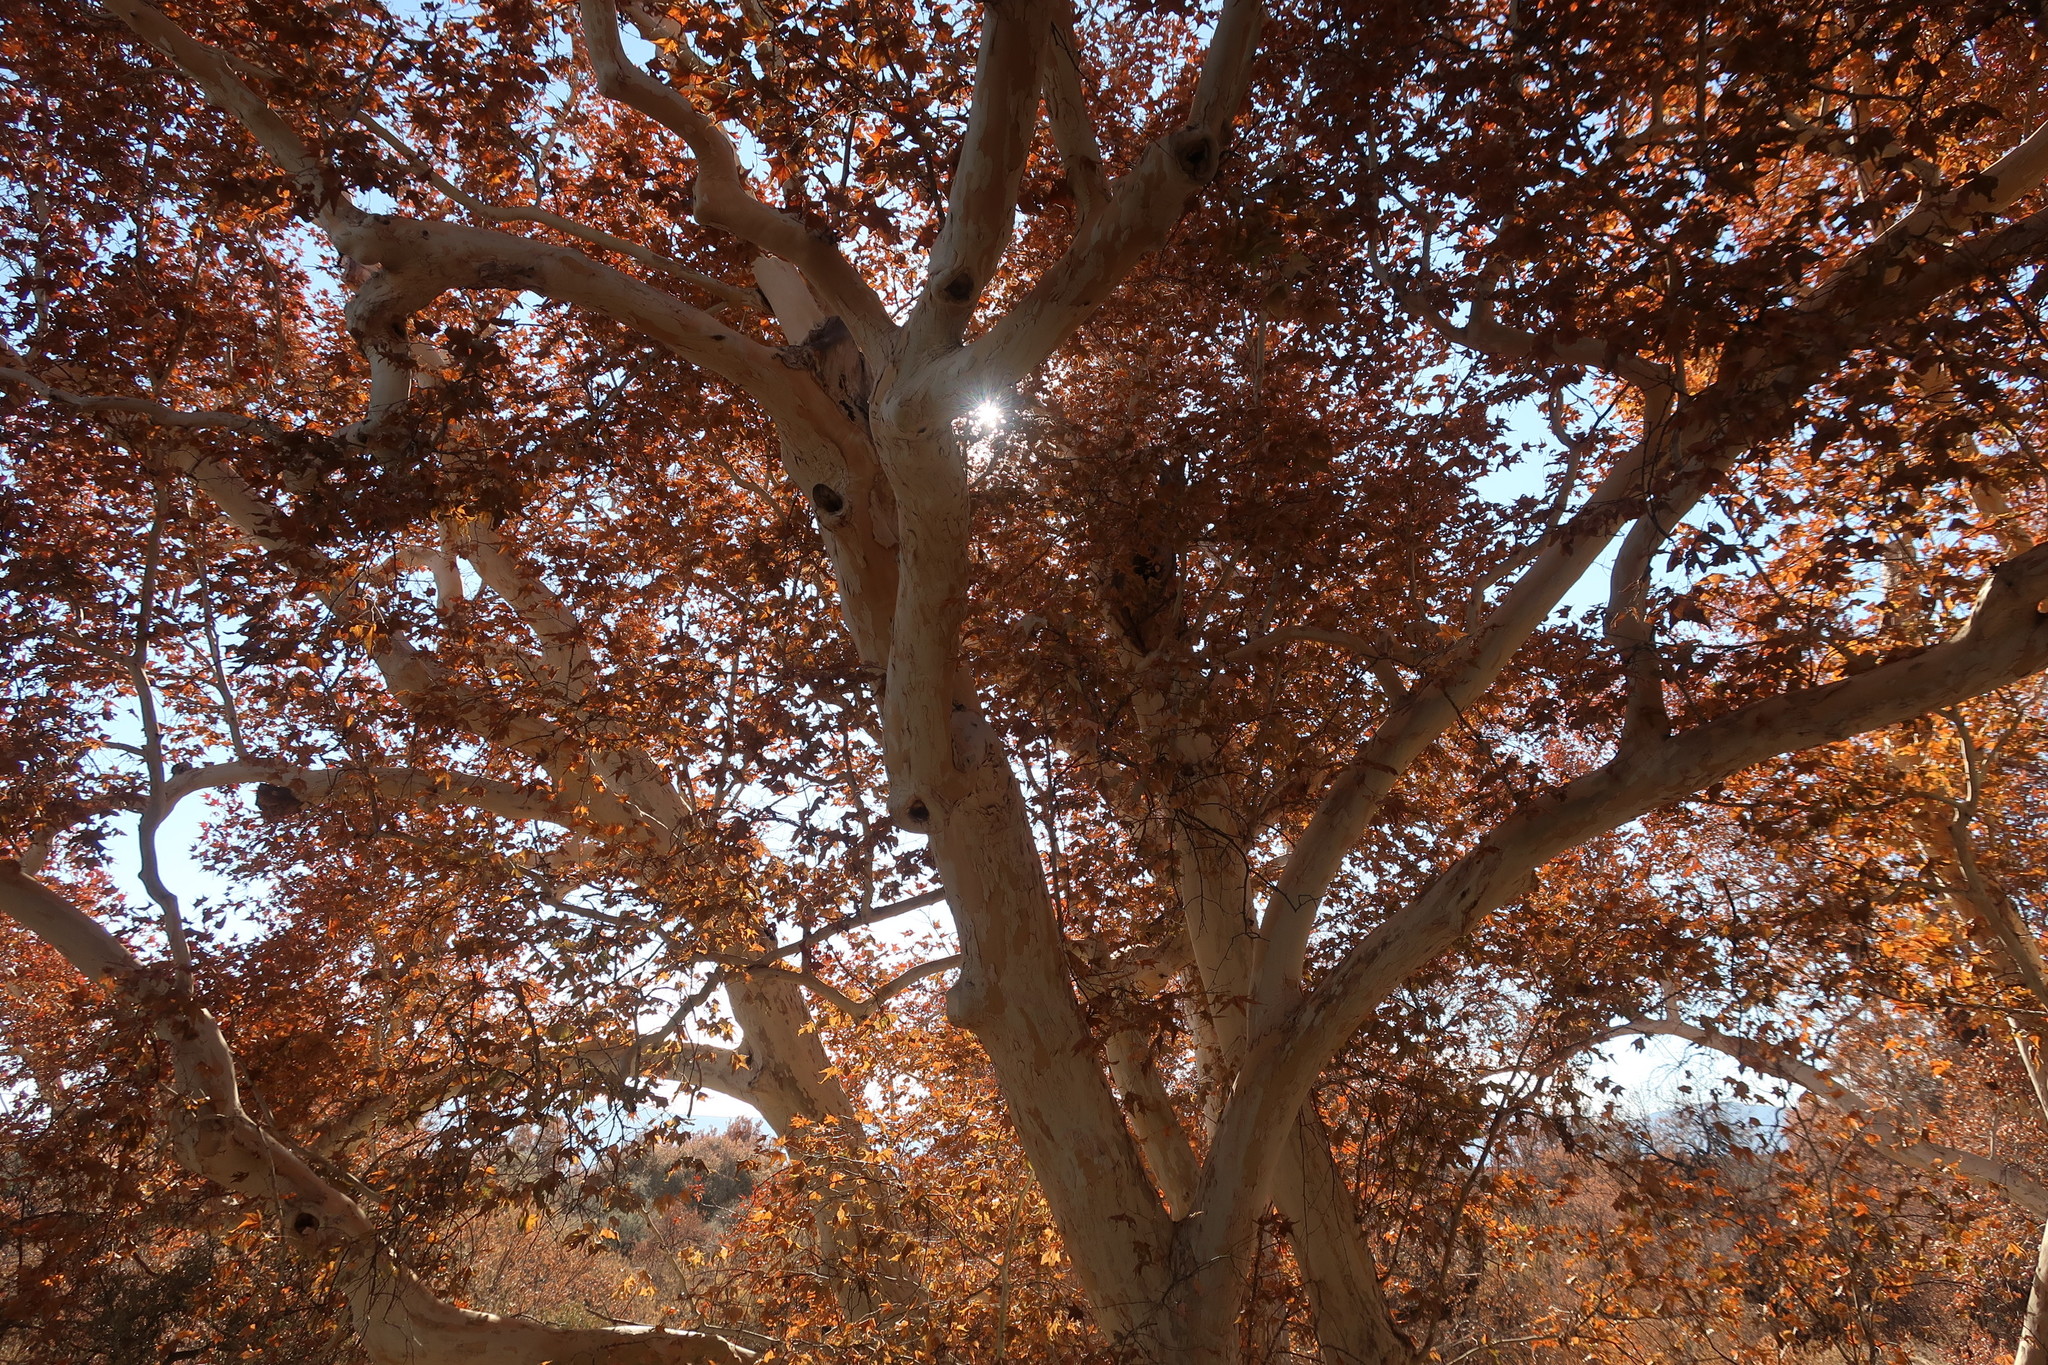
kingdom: Plantae
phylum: Tracheophyta
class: Magnoliopsida
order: Proteales
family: Platanaceae
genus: Platanus
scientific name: Platanus wrightii
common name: Arizona sycamore
